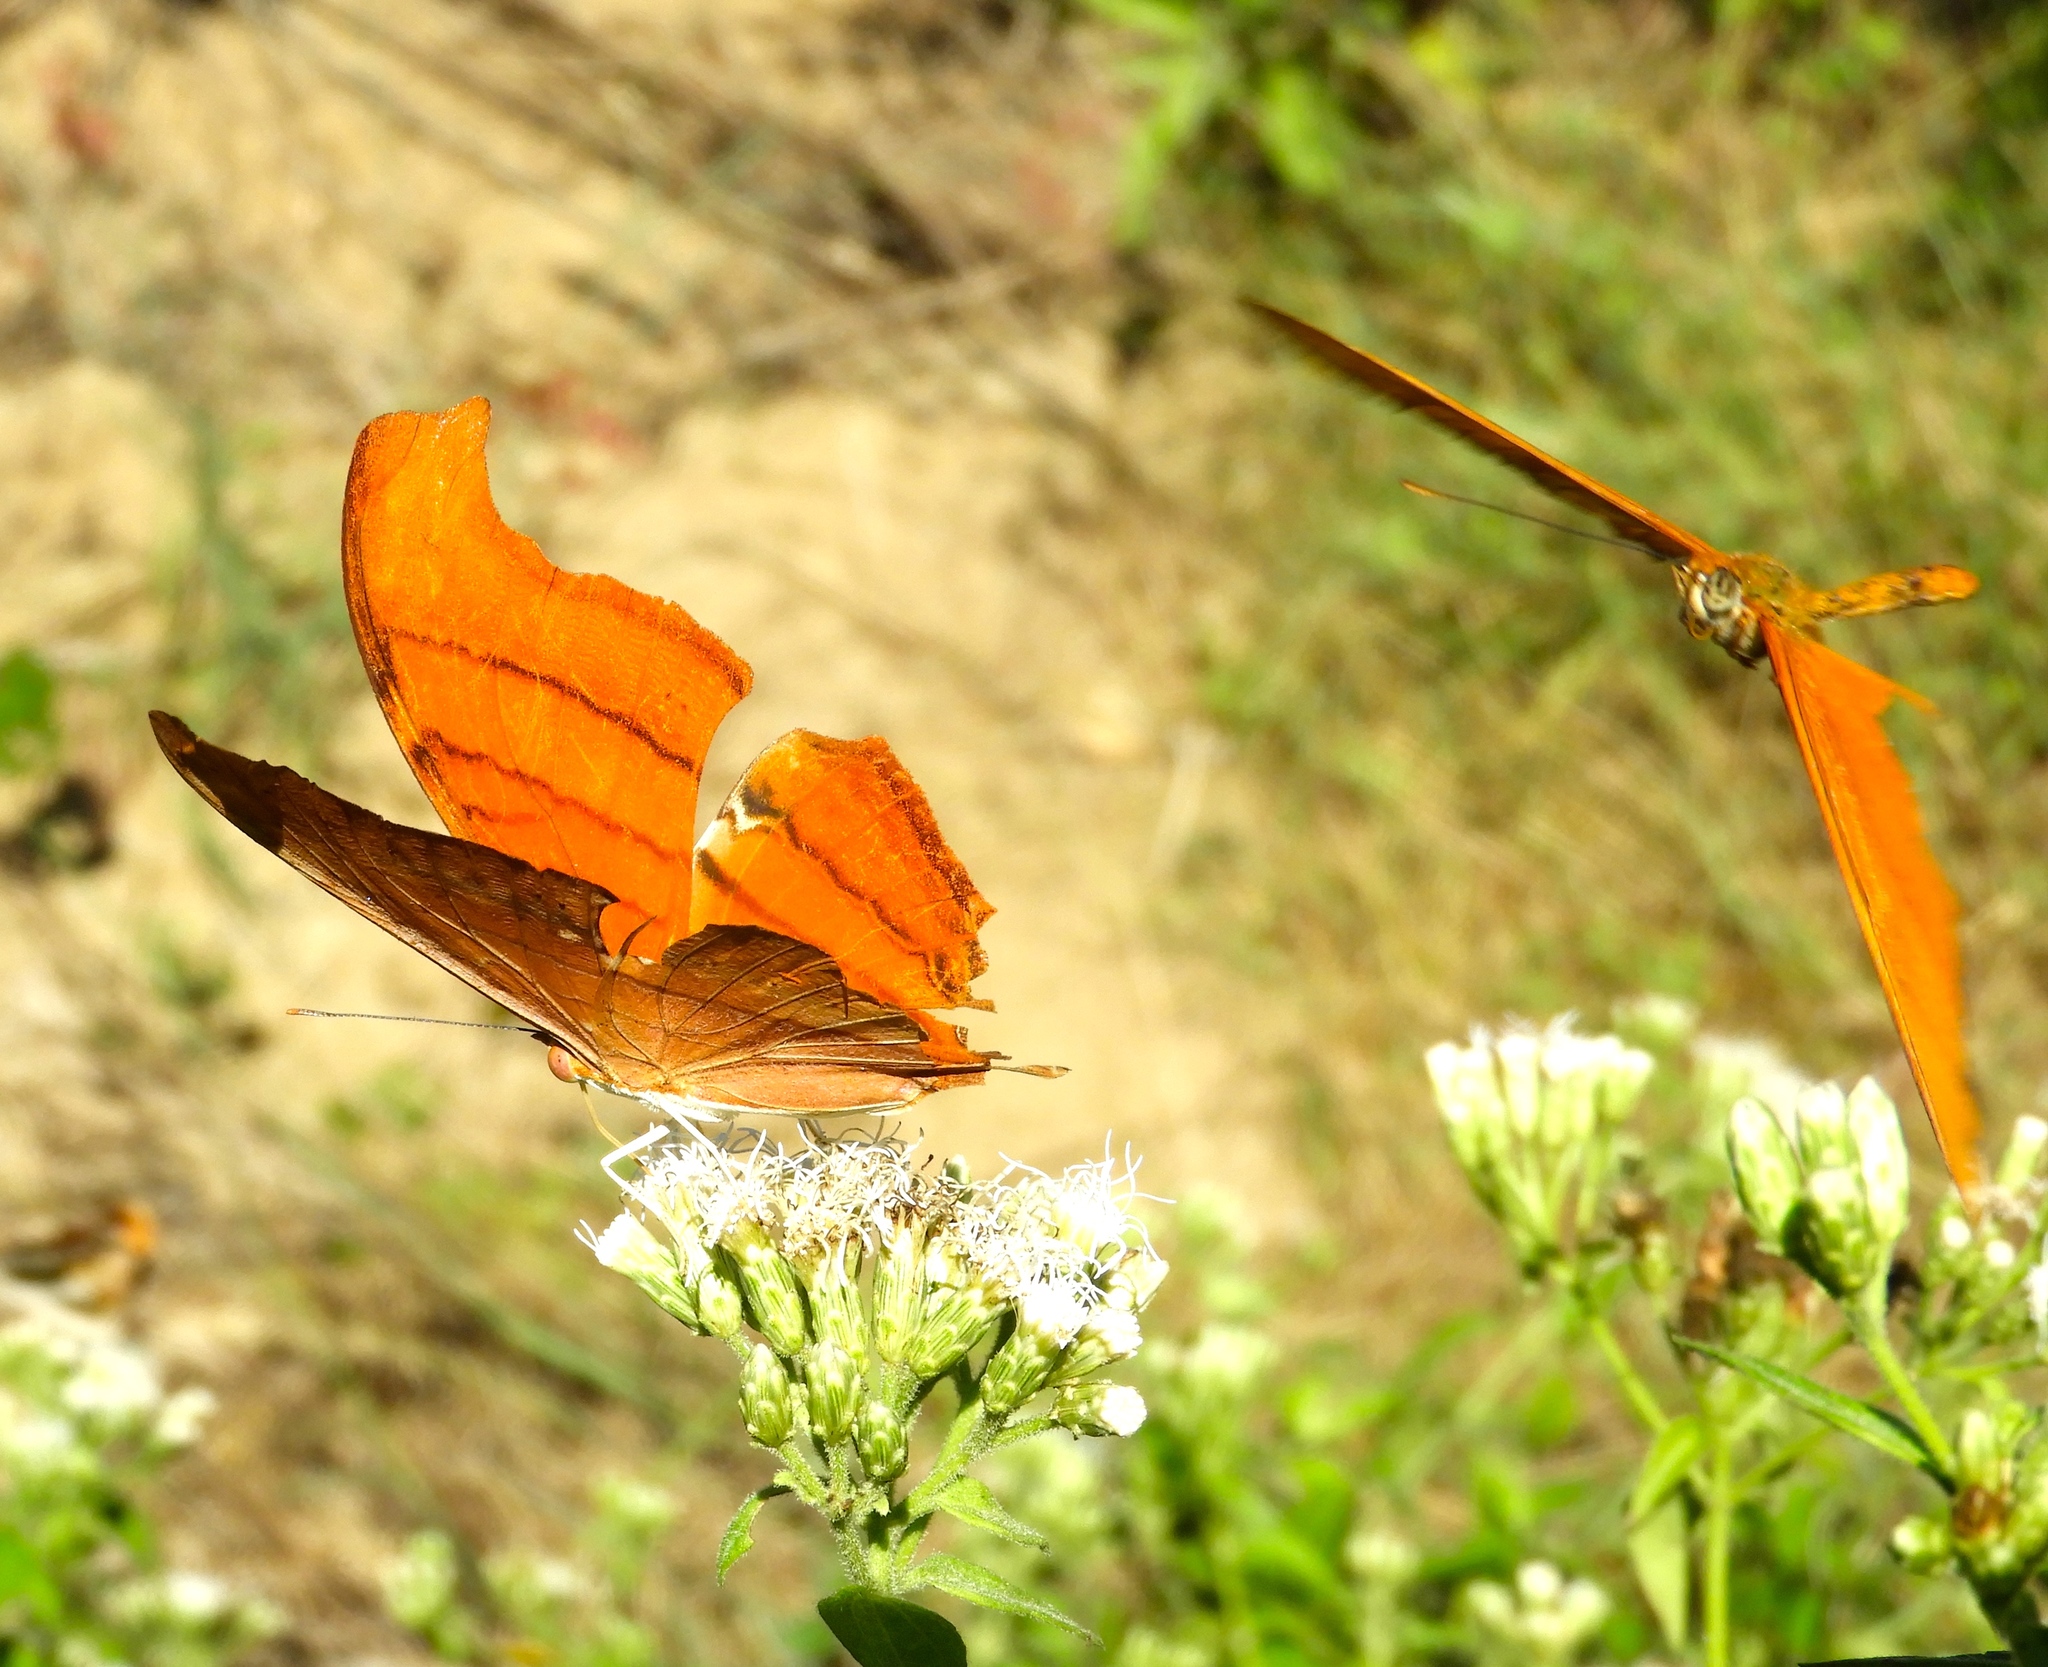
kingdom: Animalia
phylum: Arthropoda
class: Insecta
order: Lepidoptera
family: Nymphalidae
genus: Dryas
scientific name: Dryas iulia
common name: Flambeau
